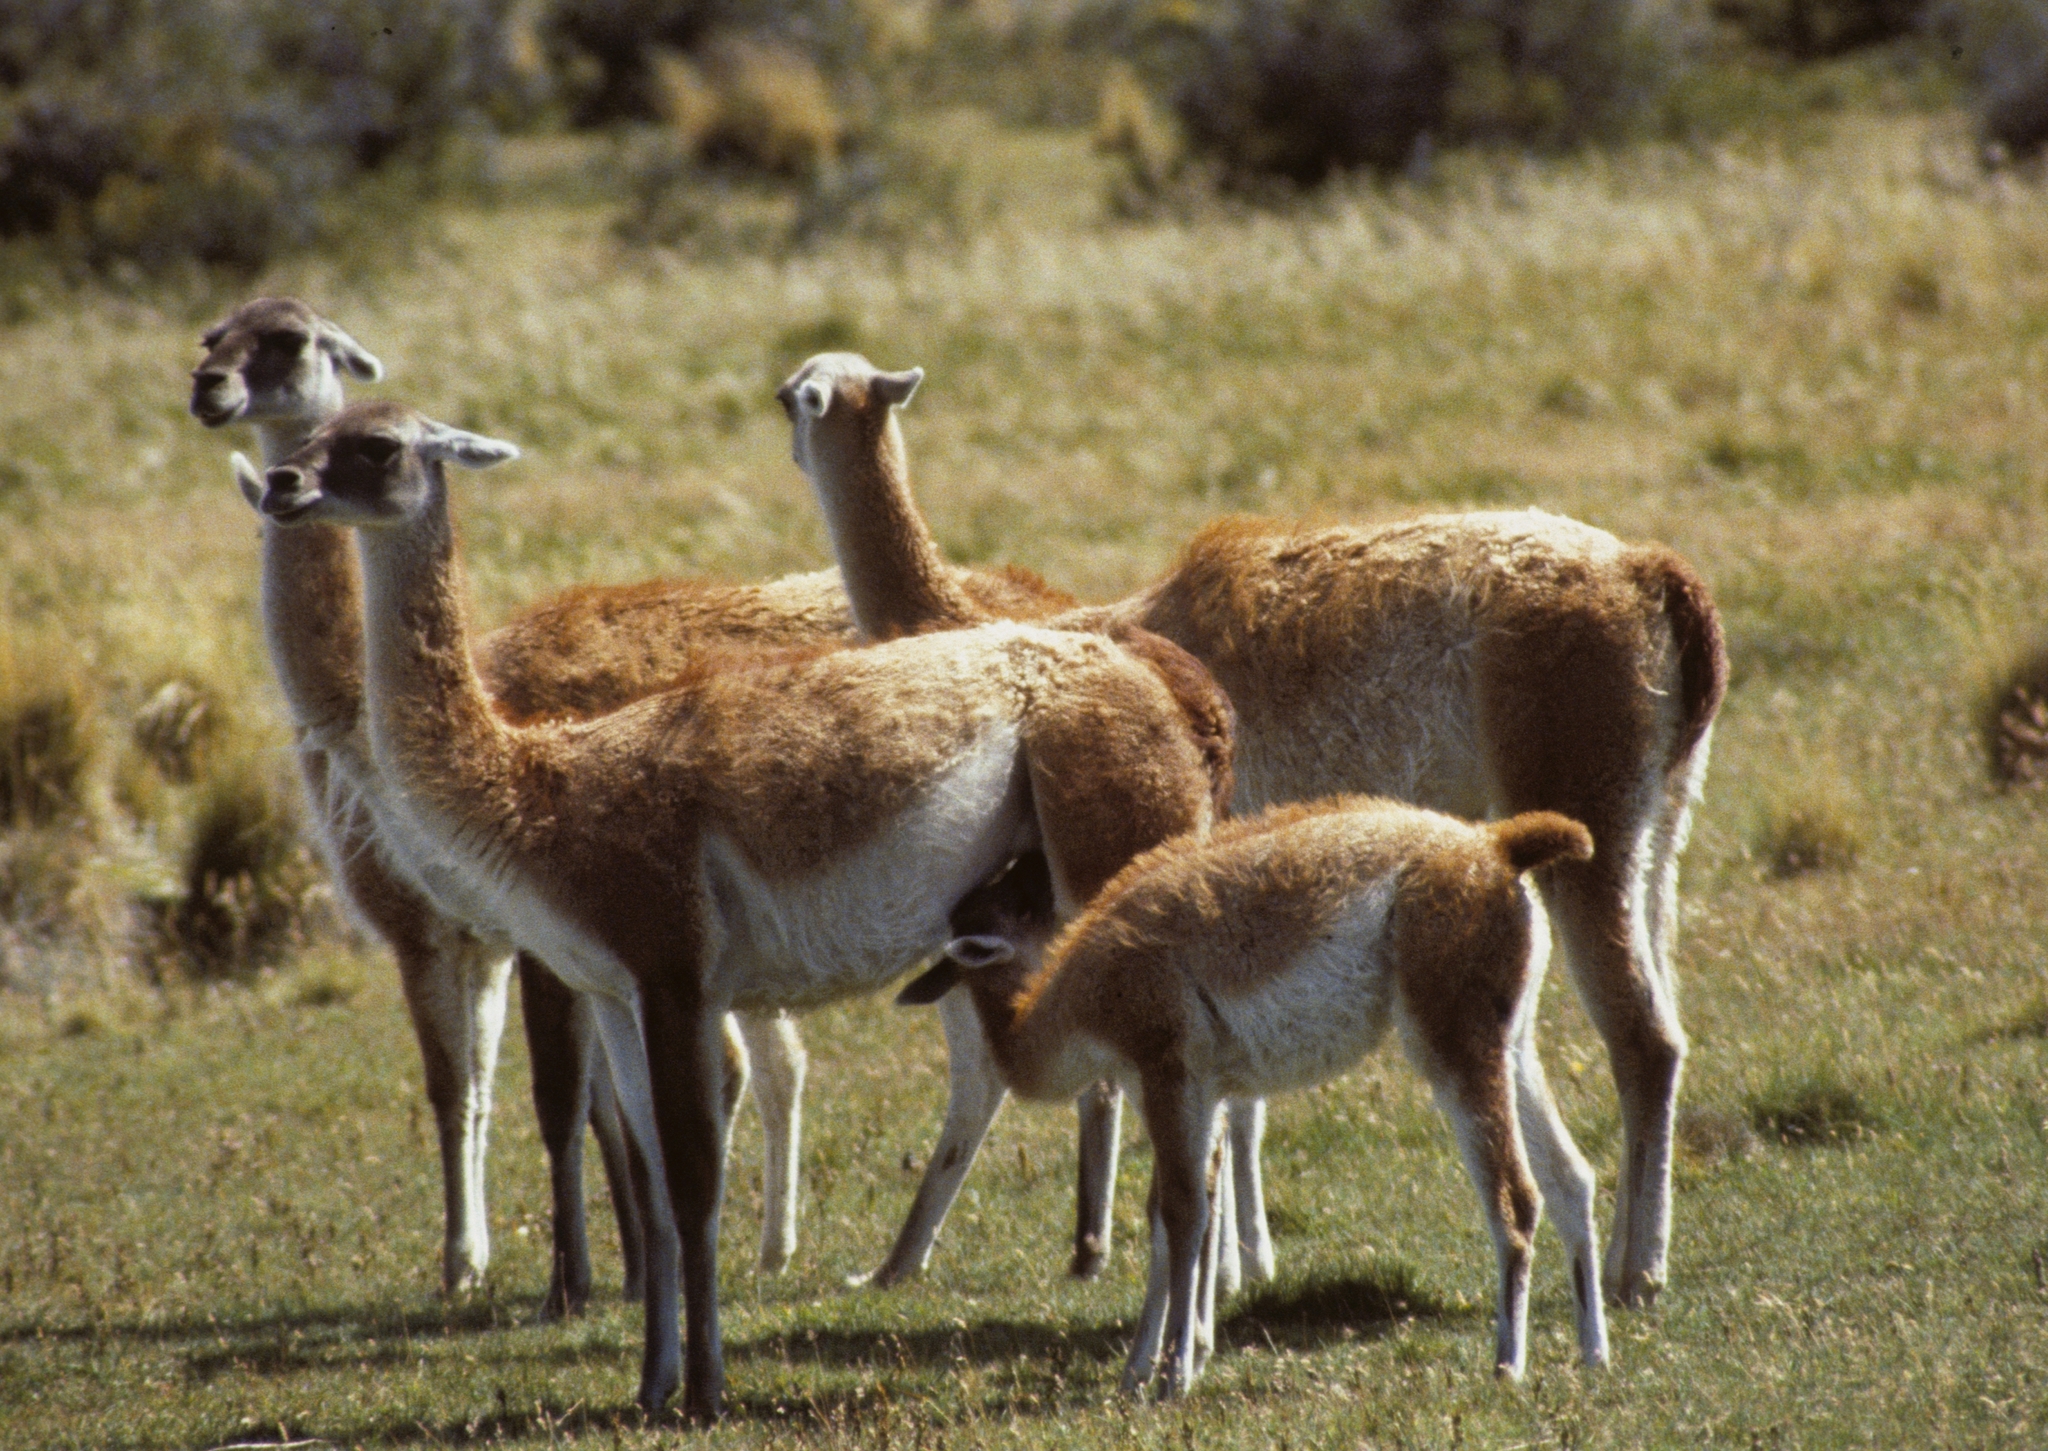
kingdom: Animalia
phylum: Chordata
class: Mammalia
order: Artiodactyla
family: Camelidae
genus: Lama
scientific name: Lama glama
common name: Llama
